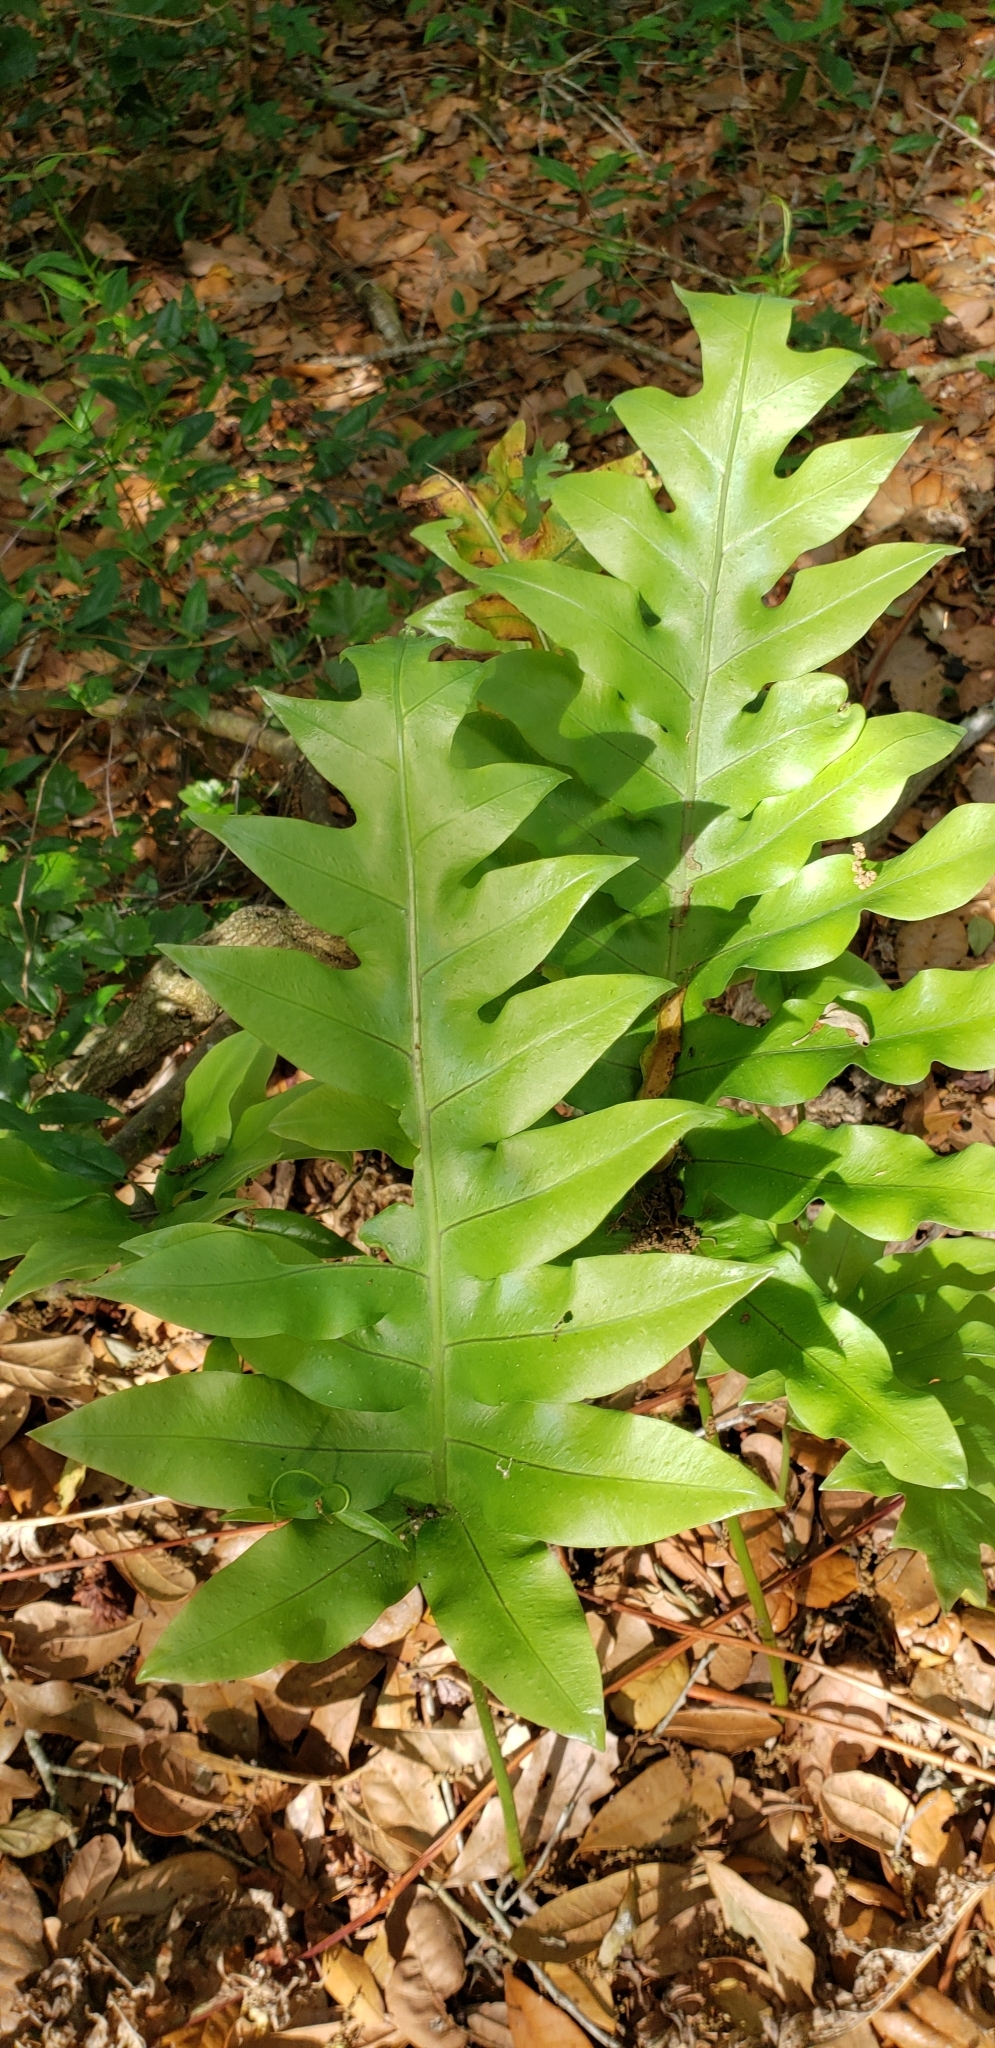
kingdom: Plantae
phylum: Tracheophyta
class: Polypodiopsida
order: Polypodiales
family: Polypodiaceae
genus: Phlebodium
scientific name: Phlebodium aureum
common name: Gold-foot fern
